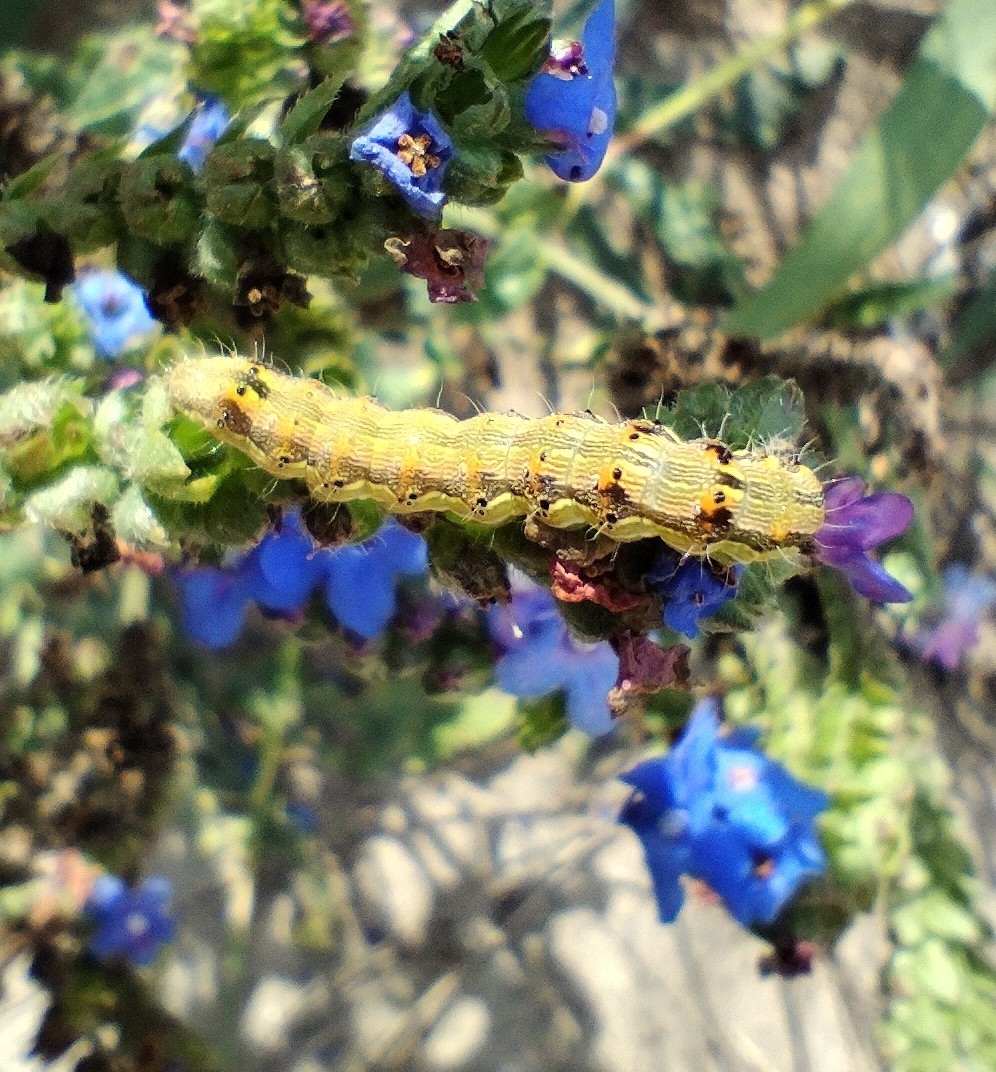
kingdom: Animalia
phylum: Arthropoda
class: Insecta
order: Lepidoptera
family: Noctuidae
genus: Helicoverpa
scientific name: Helicoverpa armigera
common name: Cotton bollworm
